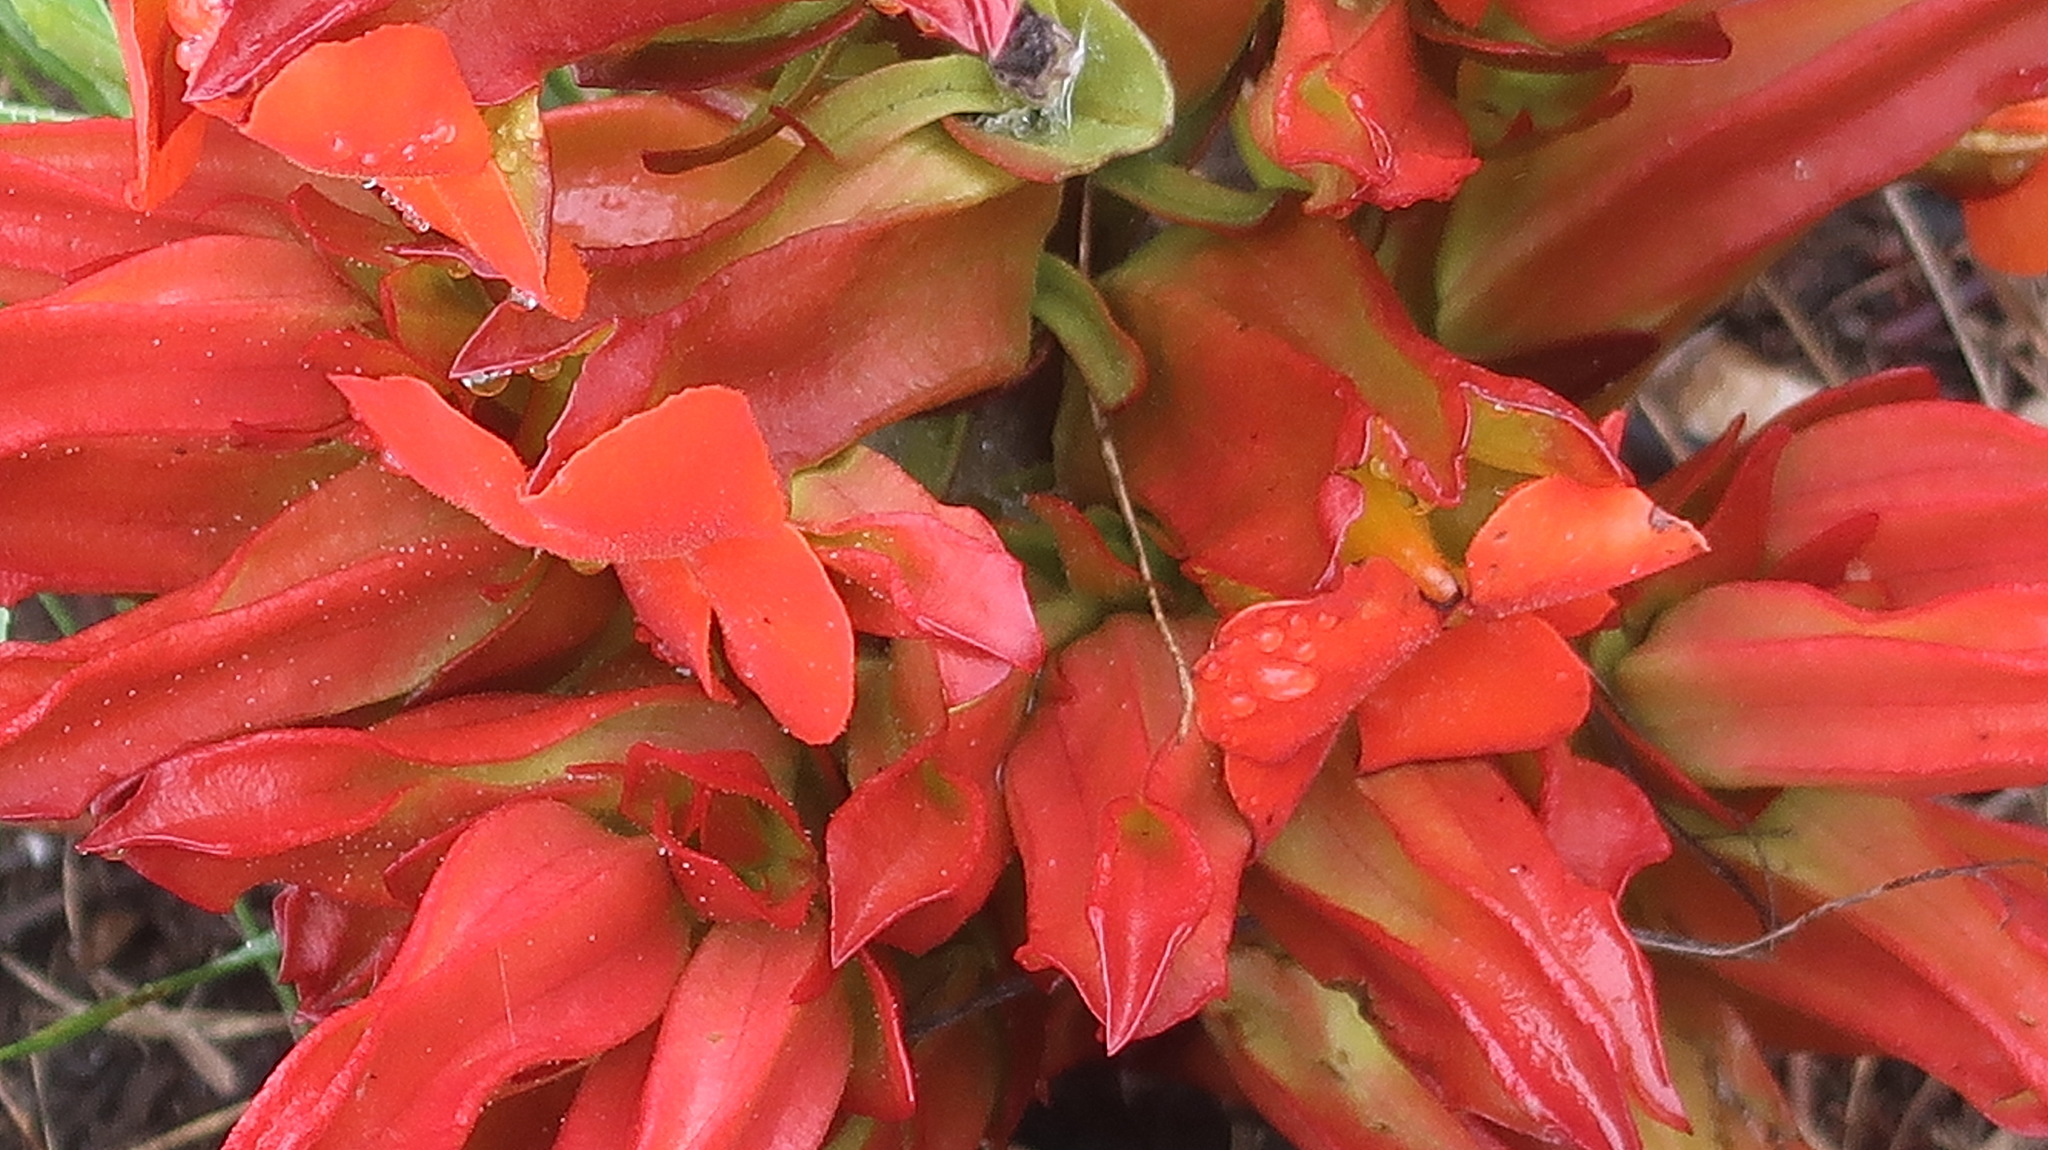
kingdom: Plantae
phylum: Tracheophyta
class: Magnoliopsida
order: Lamiales
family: Orobanchaceae
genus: Harveya
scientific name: Harveya bolusii
